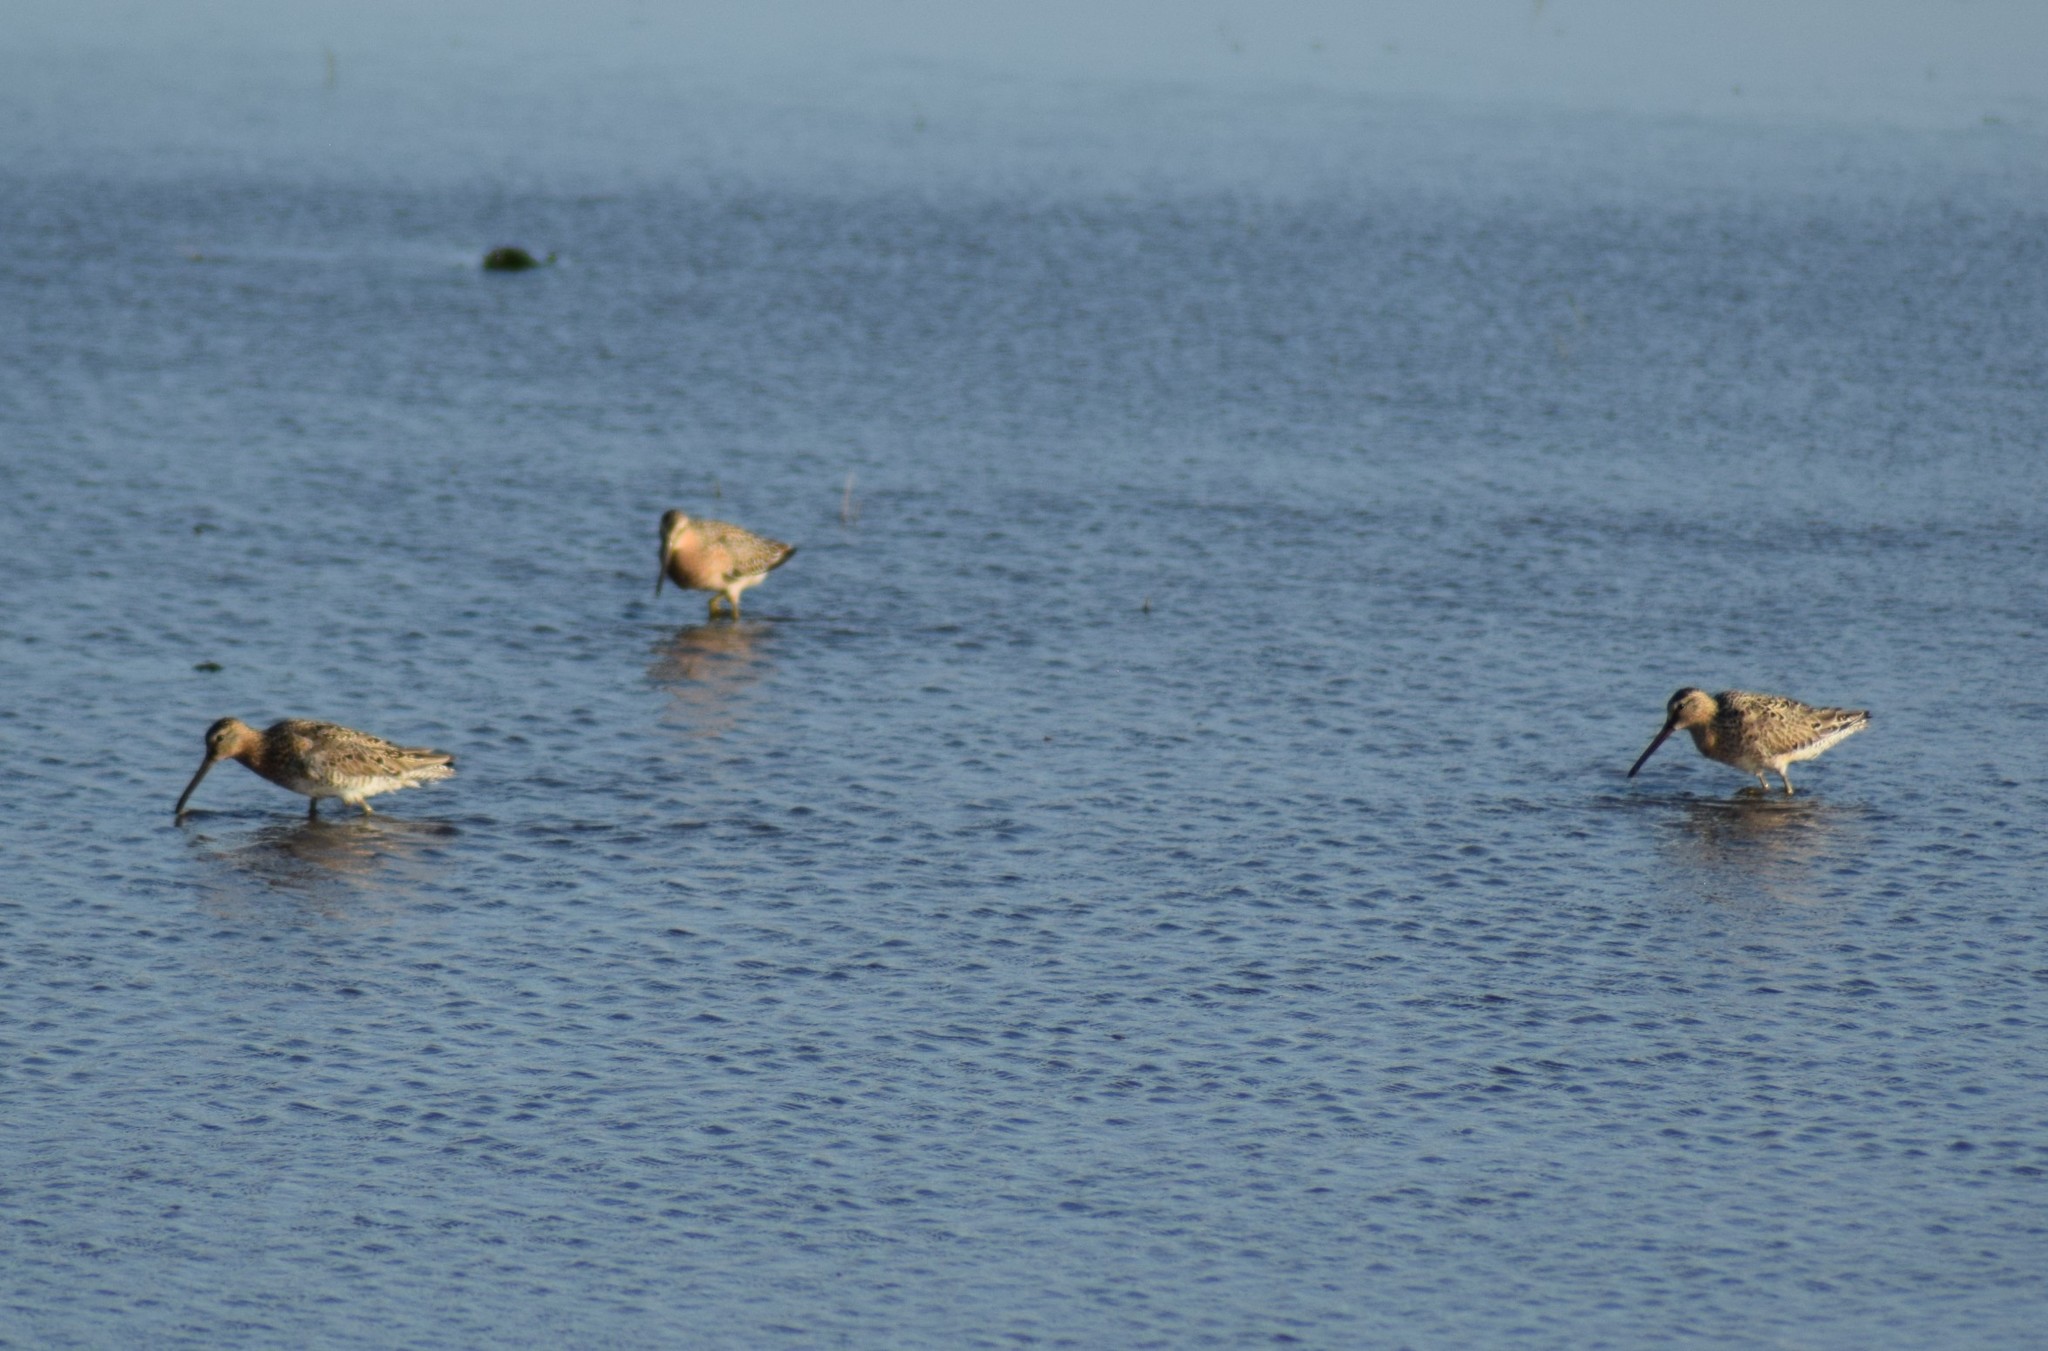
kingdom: Animalia
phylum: Chordata
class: Aves
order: Charadriiformes
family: Scolopacidae
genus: Limnodromus
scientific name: Limnodromus griseus
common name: Short-billed dowitcher
